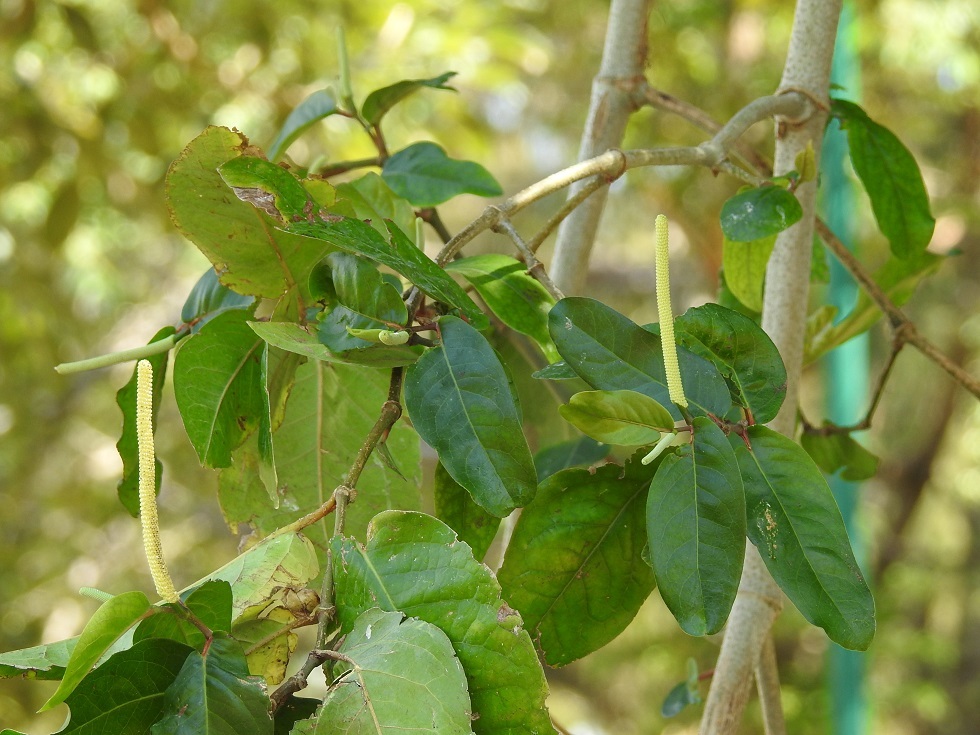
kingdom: Plantae
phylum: Tracheophyta
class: Magnoliopsida
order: Piperales
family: Piperaceae
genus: Piper
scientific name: Piper tuberculatum
